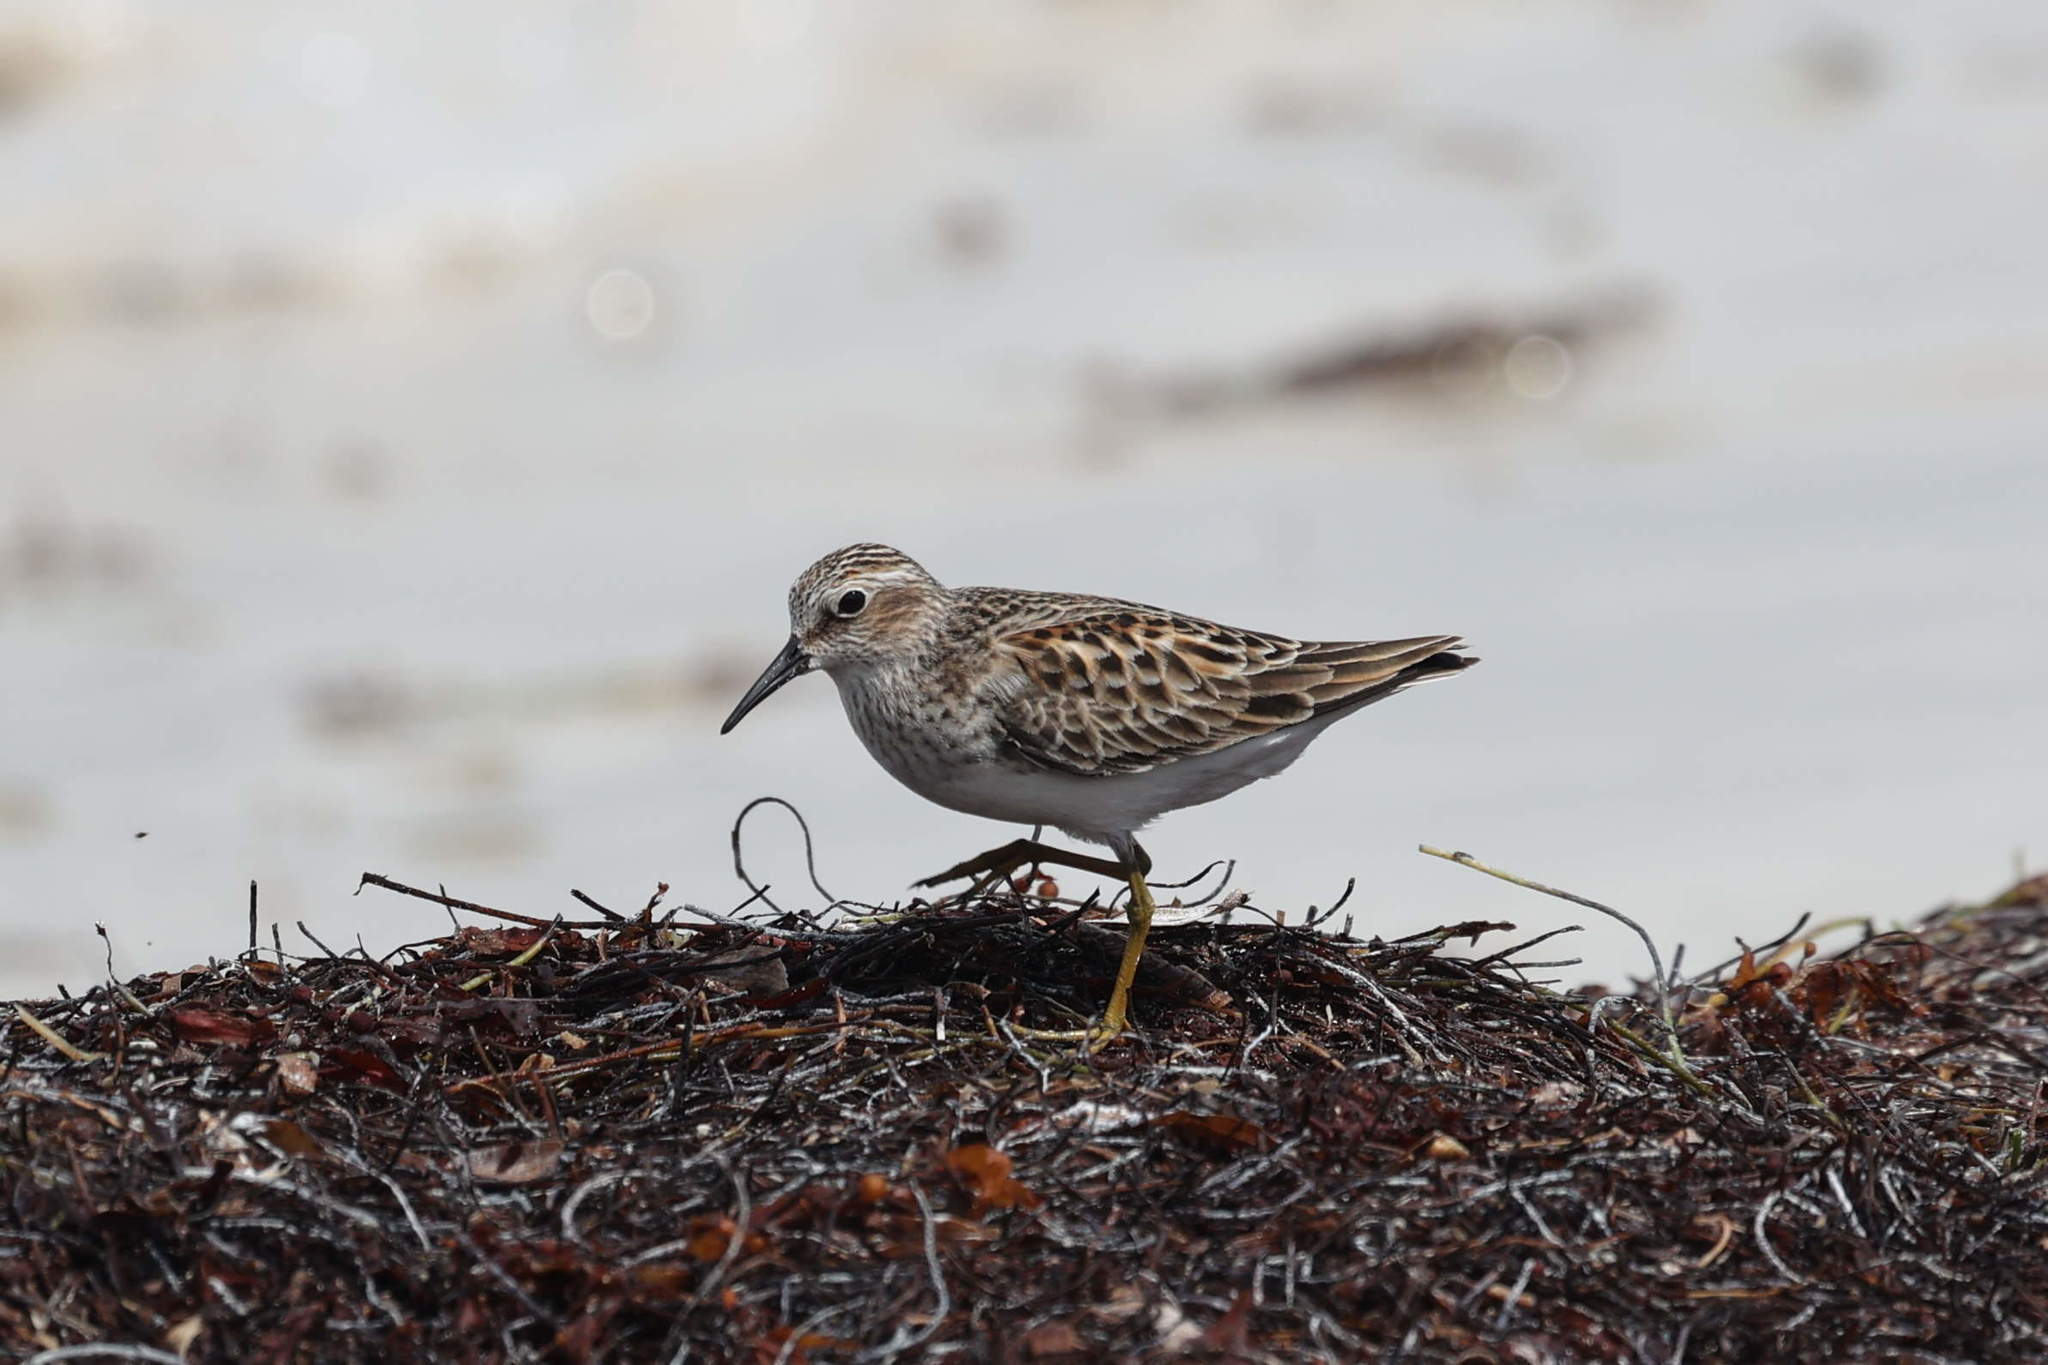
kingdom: Animalia
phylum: Chordata
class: Aves
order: Charadriiformes
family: Scolopacidae
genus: Calidris
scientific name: Calidris minutilla
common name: Least sandpiper
